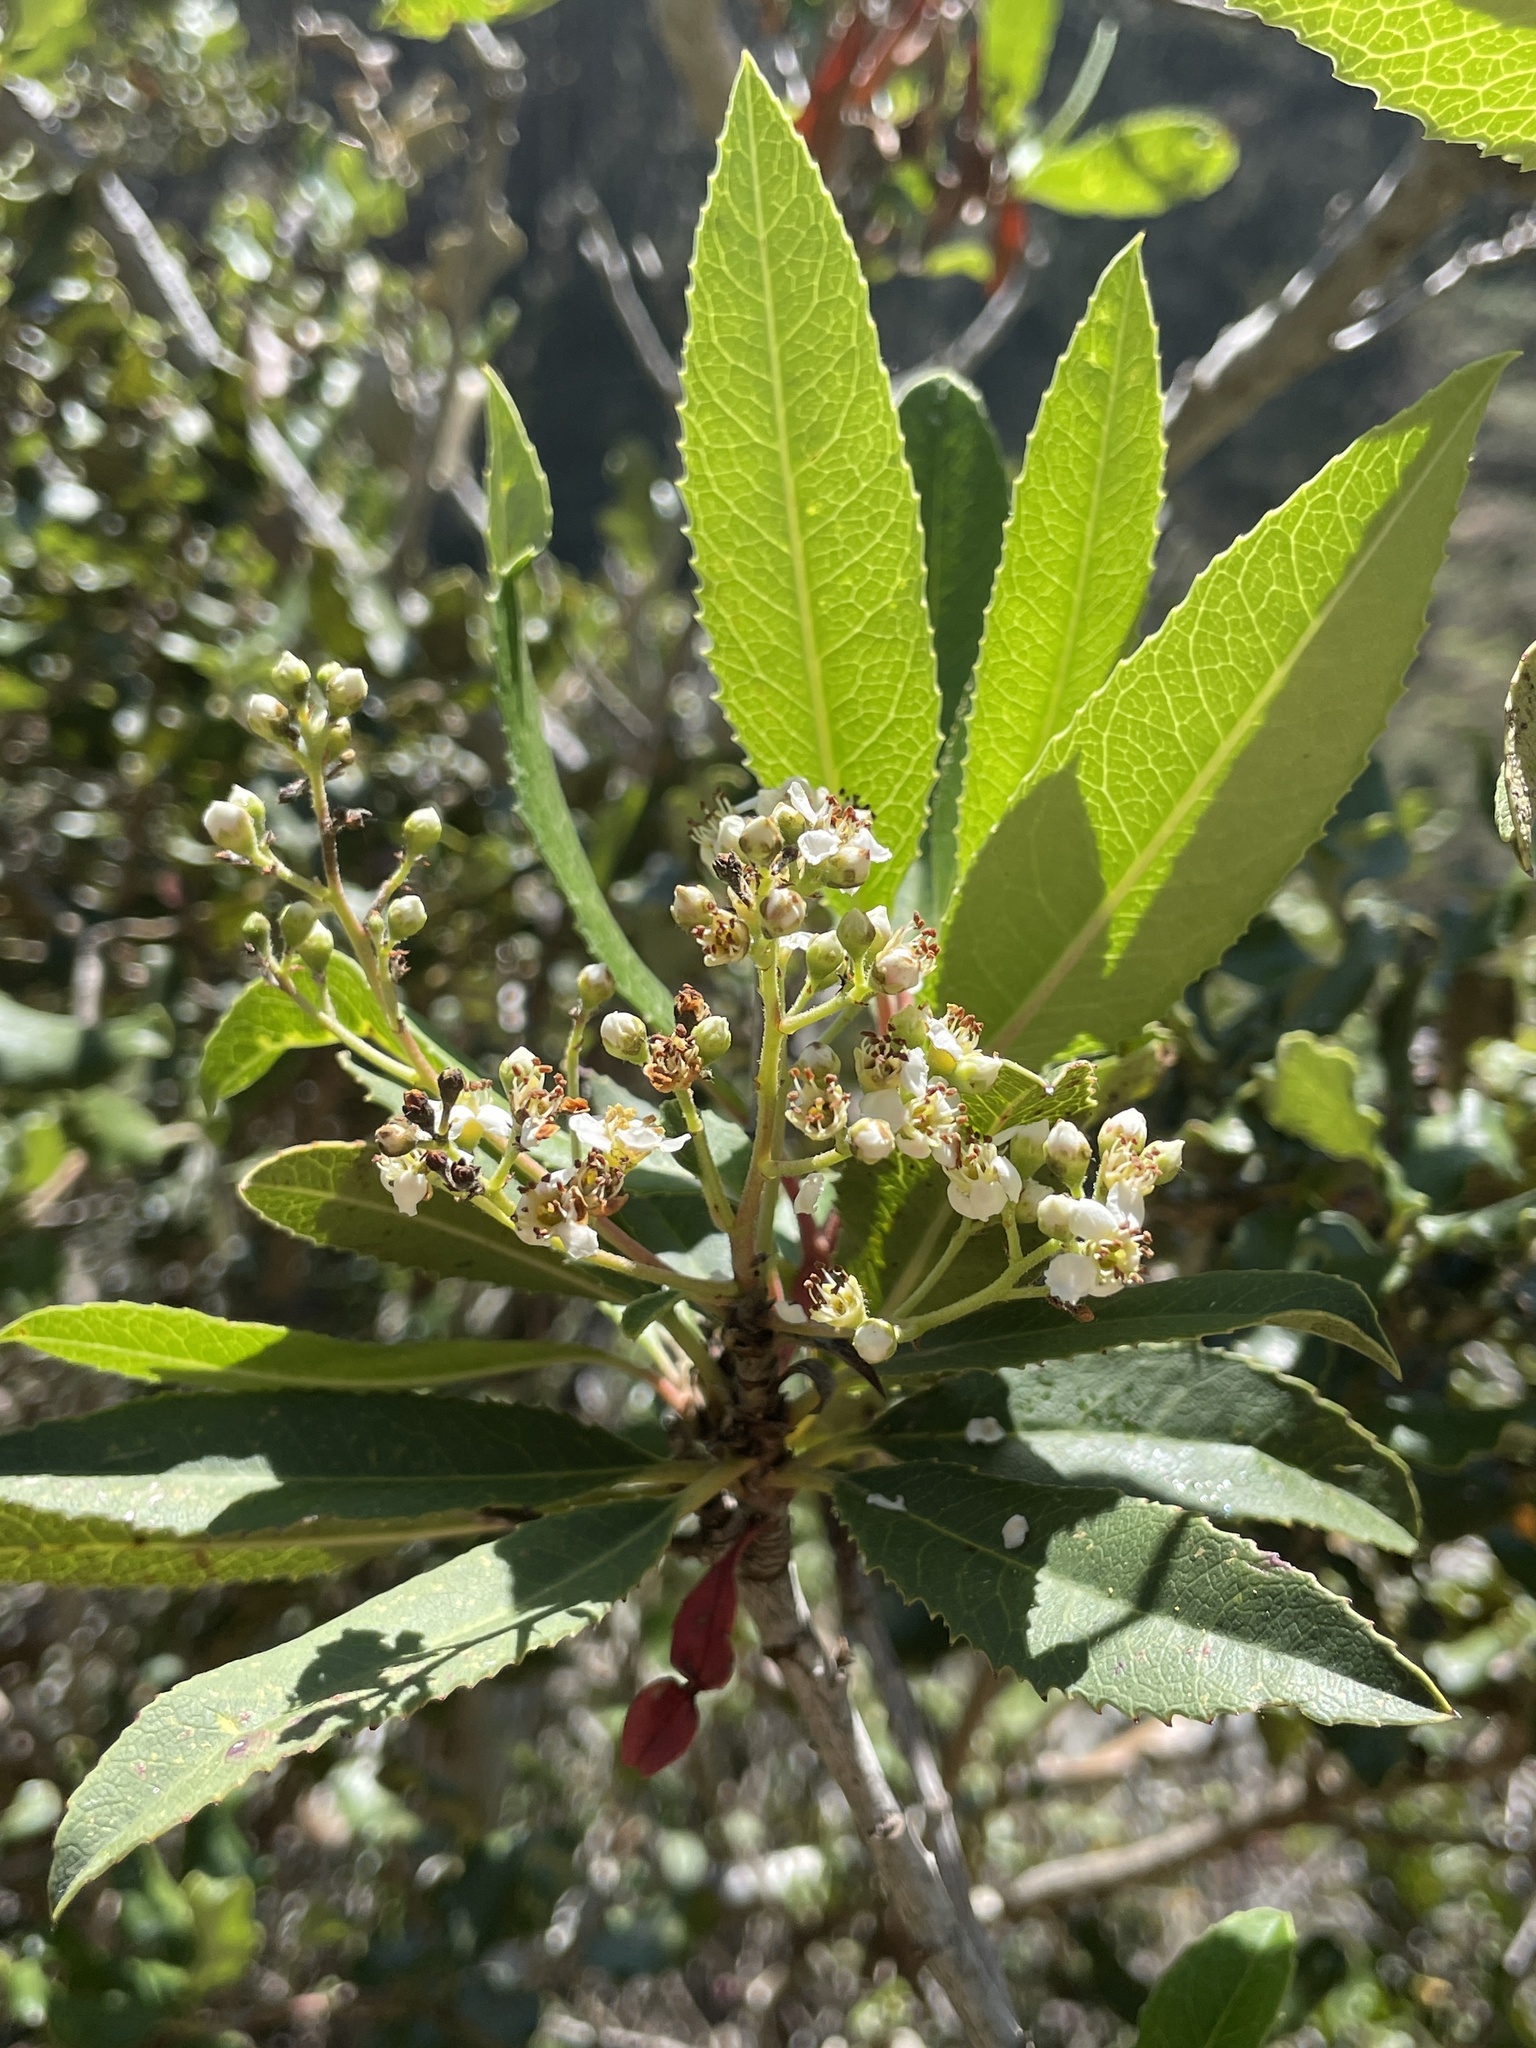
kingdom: Plantae
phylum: Tracheophyta
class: Magnoliopsida
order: Rosales
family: Rosaceae
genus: Heteromeles
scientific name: Heteromeles arbutifolia
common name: California-holly
